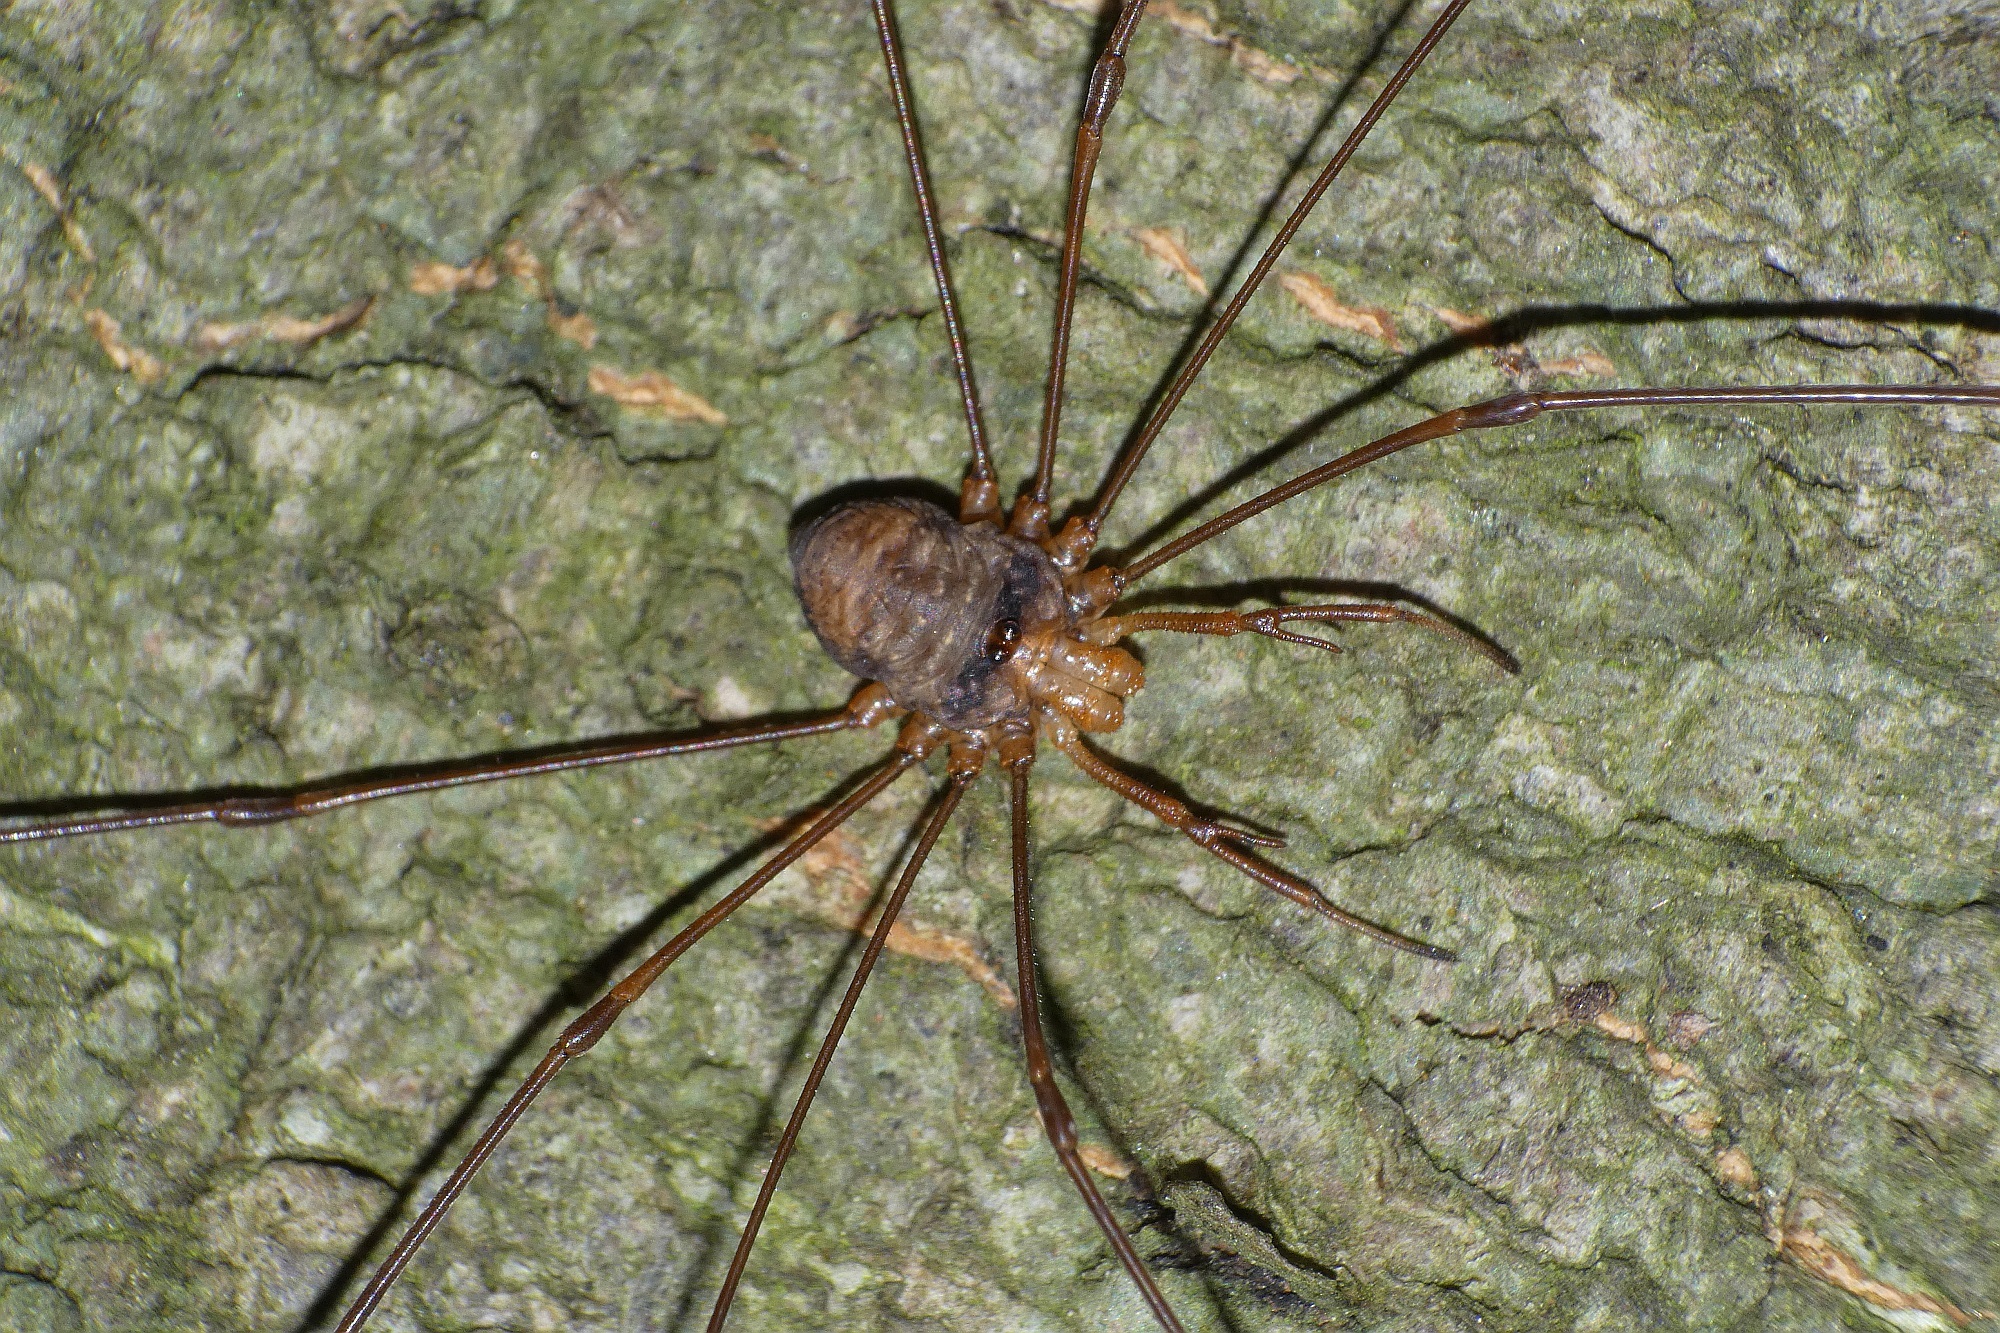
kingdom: Animalia
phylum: Arthropoda
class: Arachnida
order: Opiliones
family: Phalangiidae
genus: Dicranopalpus
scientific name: Dicranopalpus ramosus
